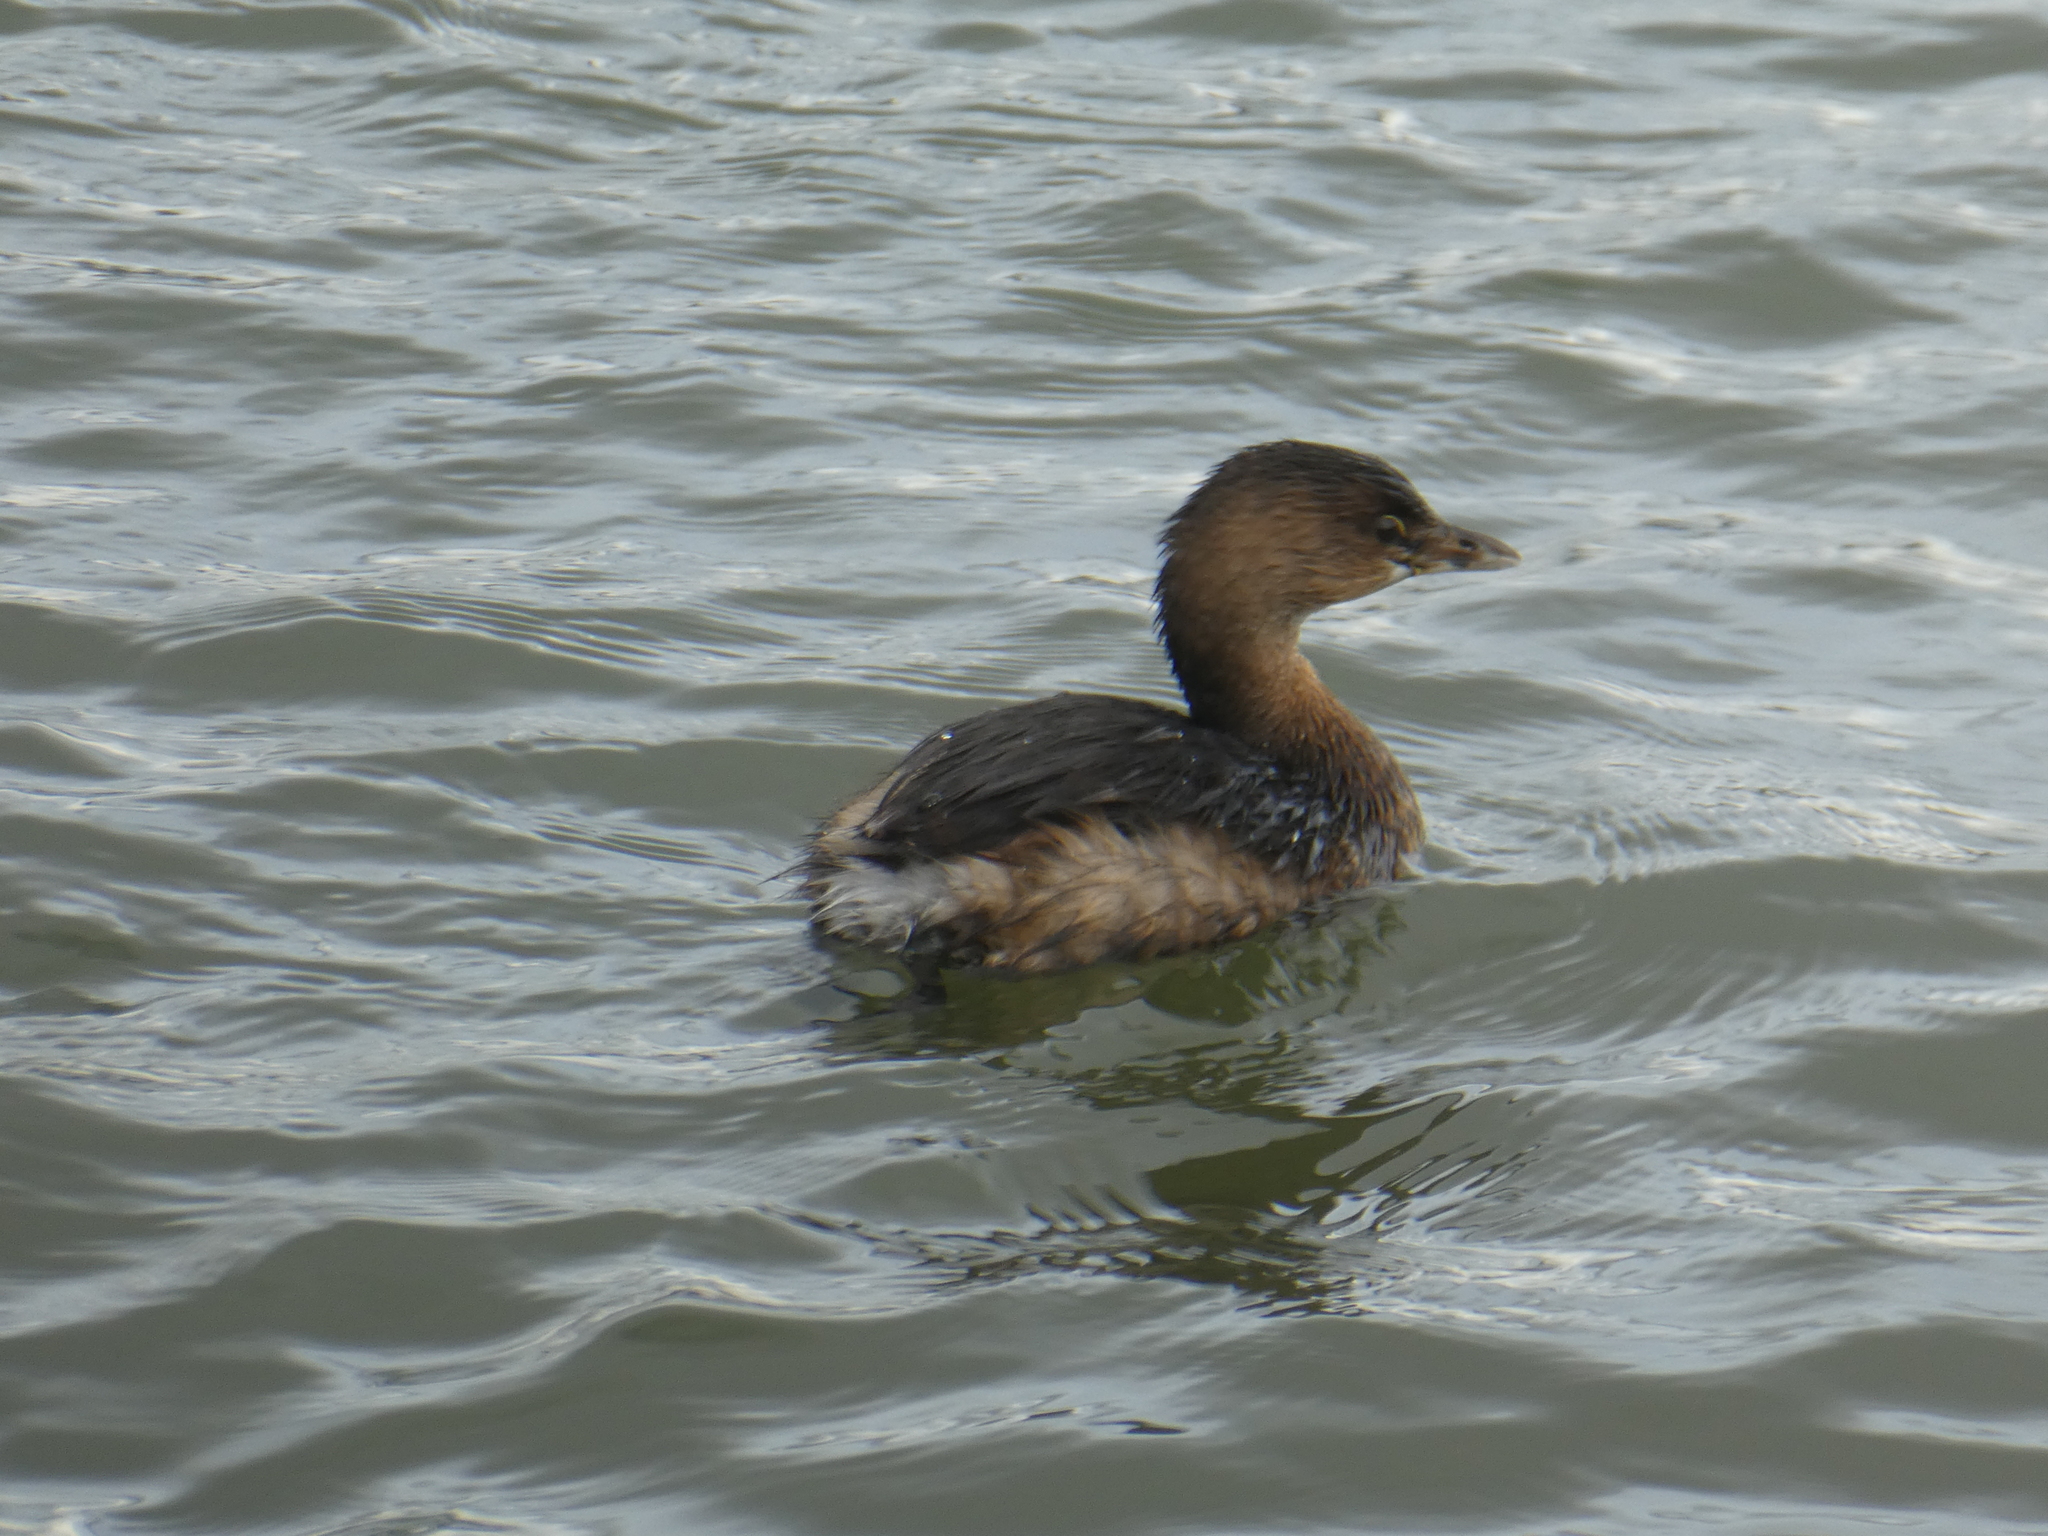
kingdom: Animalia
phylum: Chordata
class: Aves
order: Podicipediformes
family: Podicipedidae
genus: Podilymbus
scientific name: Podilymbus podiceps
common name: Pied-billed grebe
